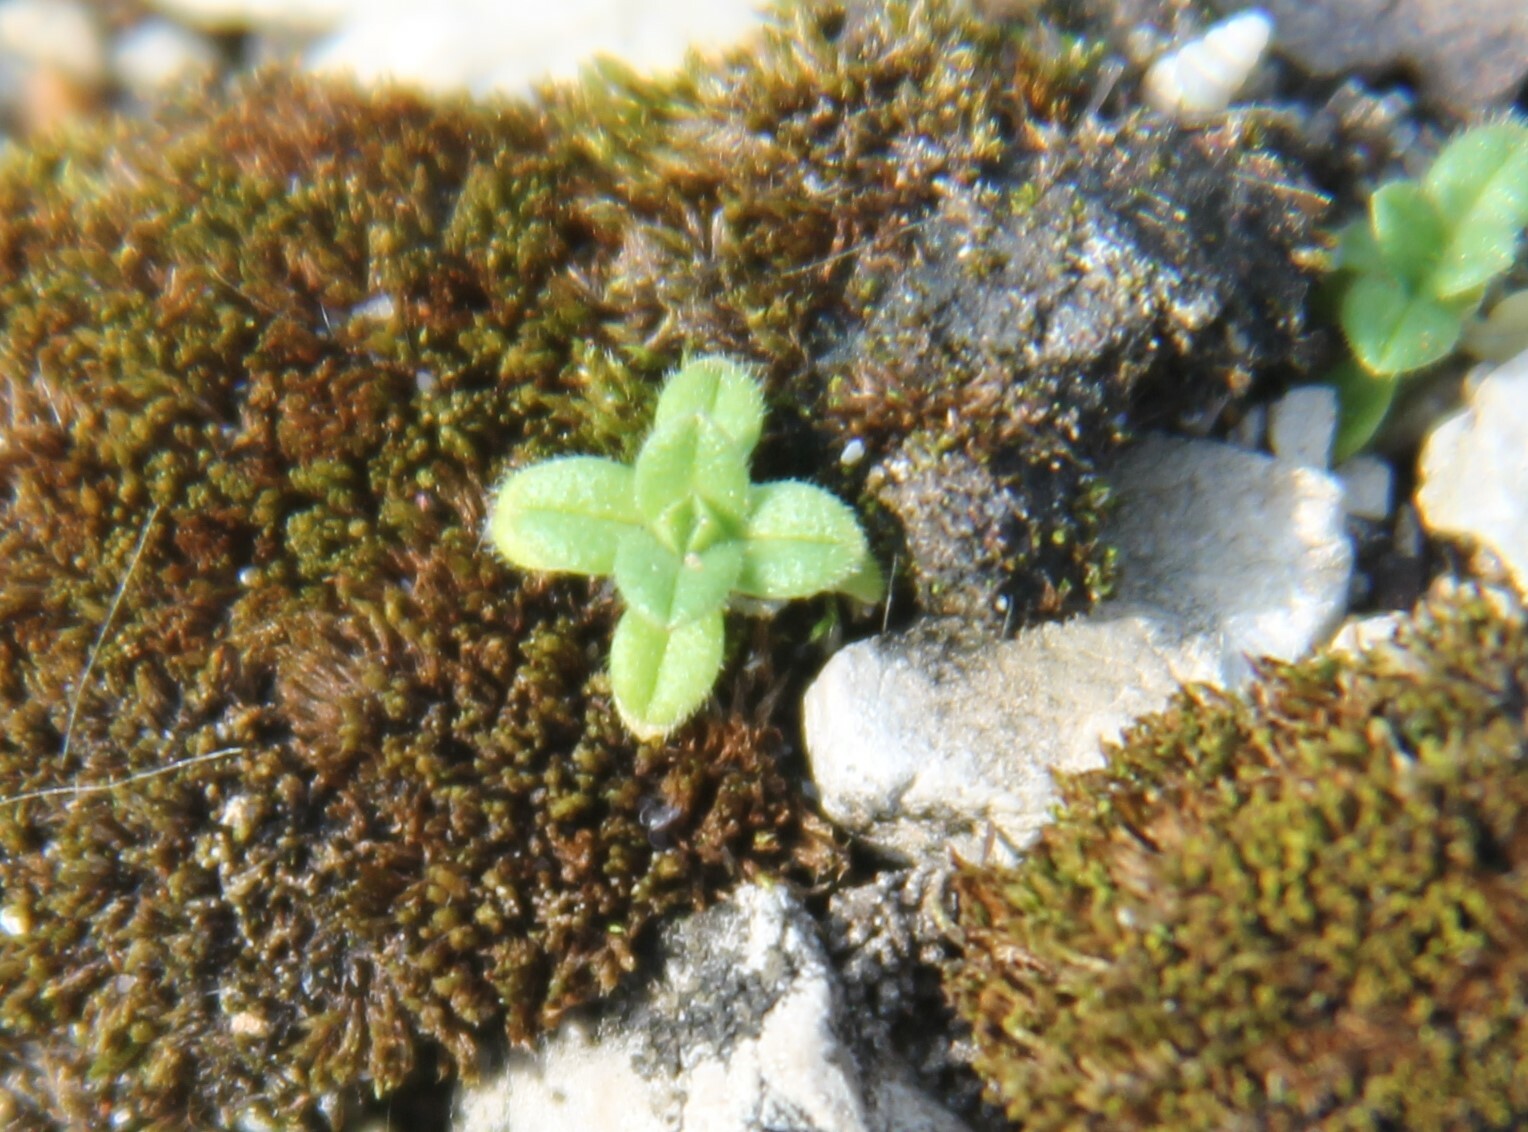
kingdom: Plantae
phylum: Tracheophyta
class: Magnoliopsida
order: Caryophyllales
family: Caryophyllaceae
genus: Cerastium
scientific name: Cerastium fontanum
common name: Common mouse-ear
